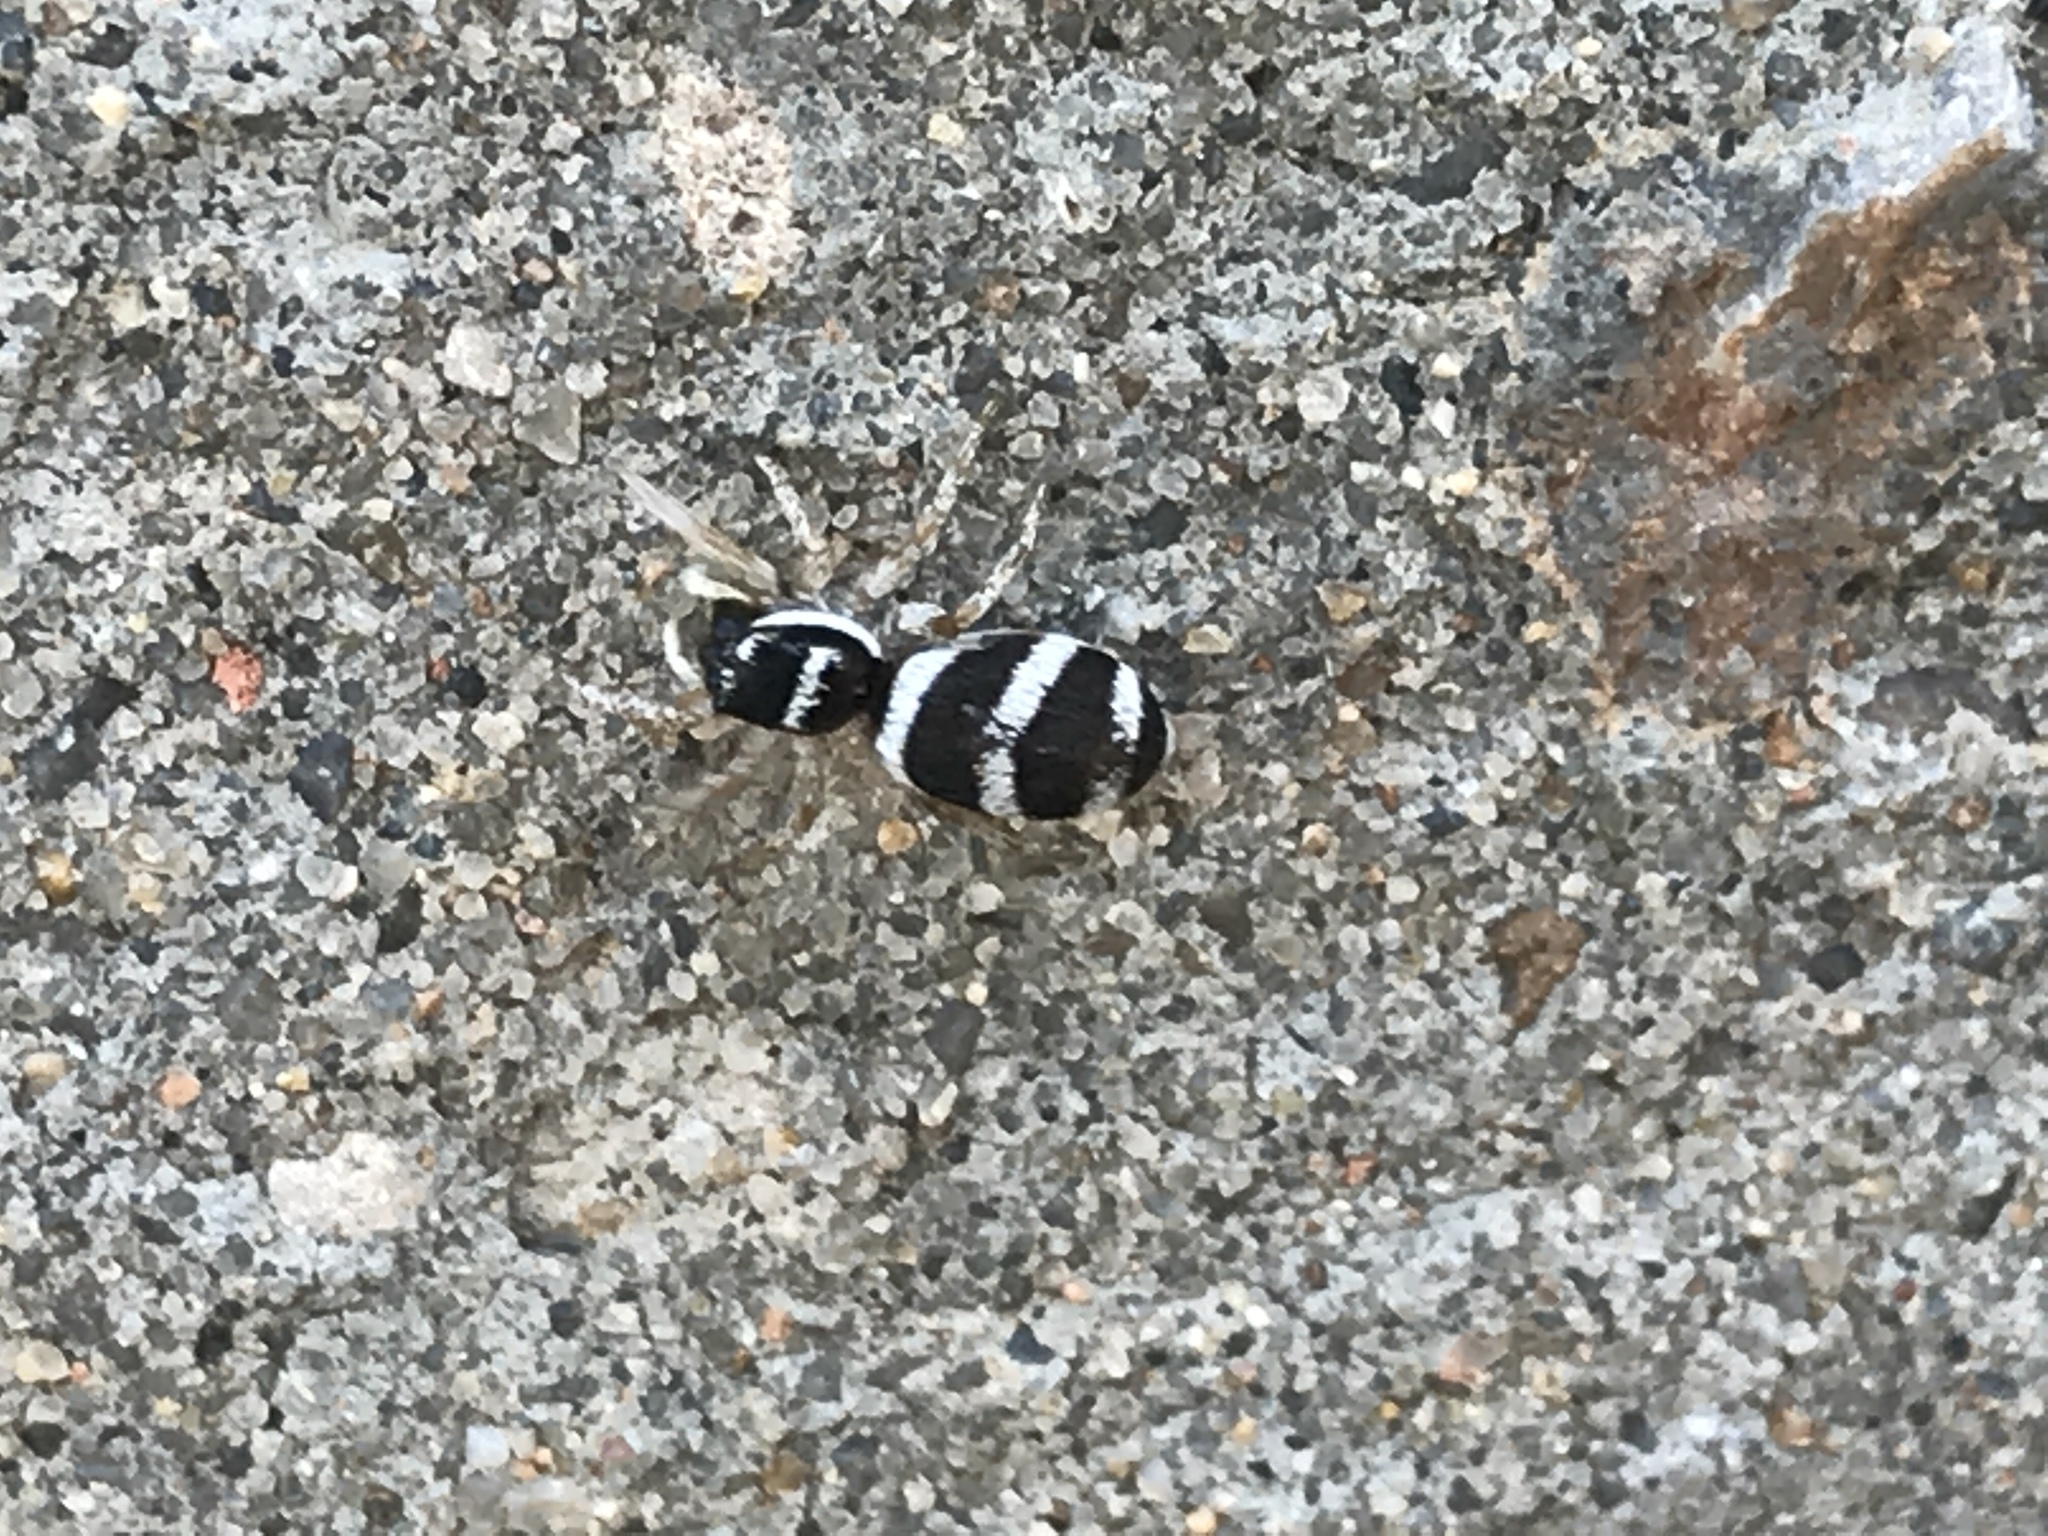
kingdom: Animalia
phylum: Arthropoda
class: Arachnida
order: Araneae
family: Salticidae
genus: Salticus
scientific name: Salticus austinensis
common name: Jumping spiders
